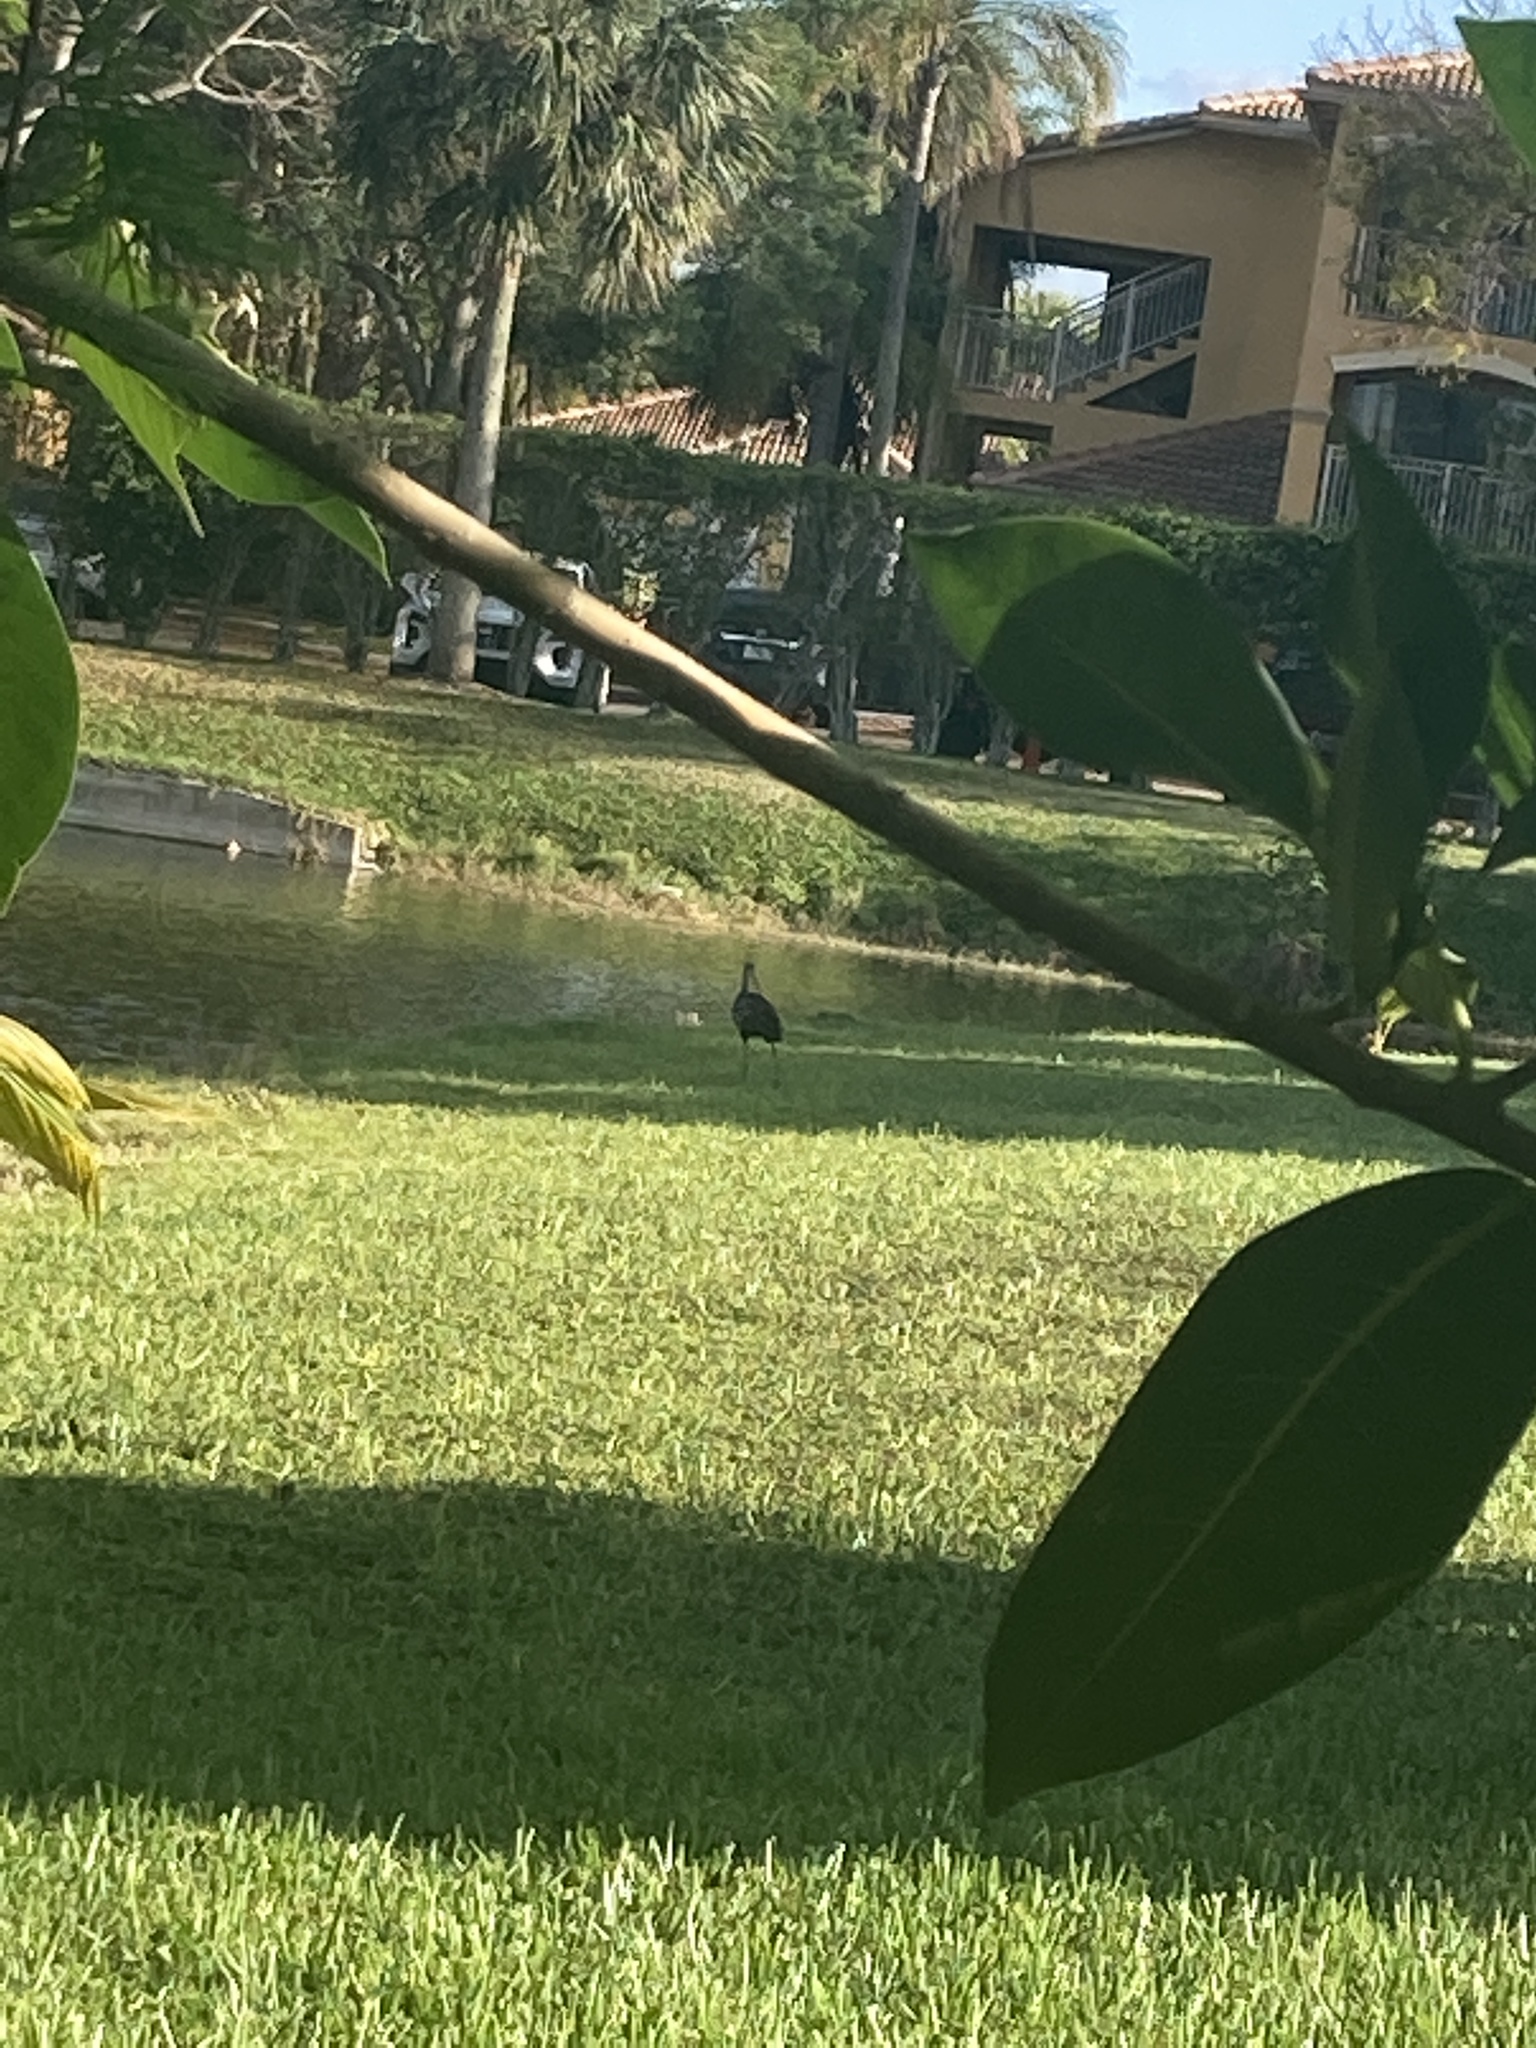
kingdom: Animalia
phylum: Chordata
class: Aves
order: Gruiformes
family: Aramidae
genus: Aramus
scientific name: Aramus guarauna
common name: Limpkin
